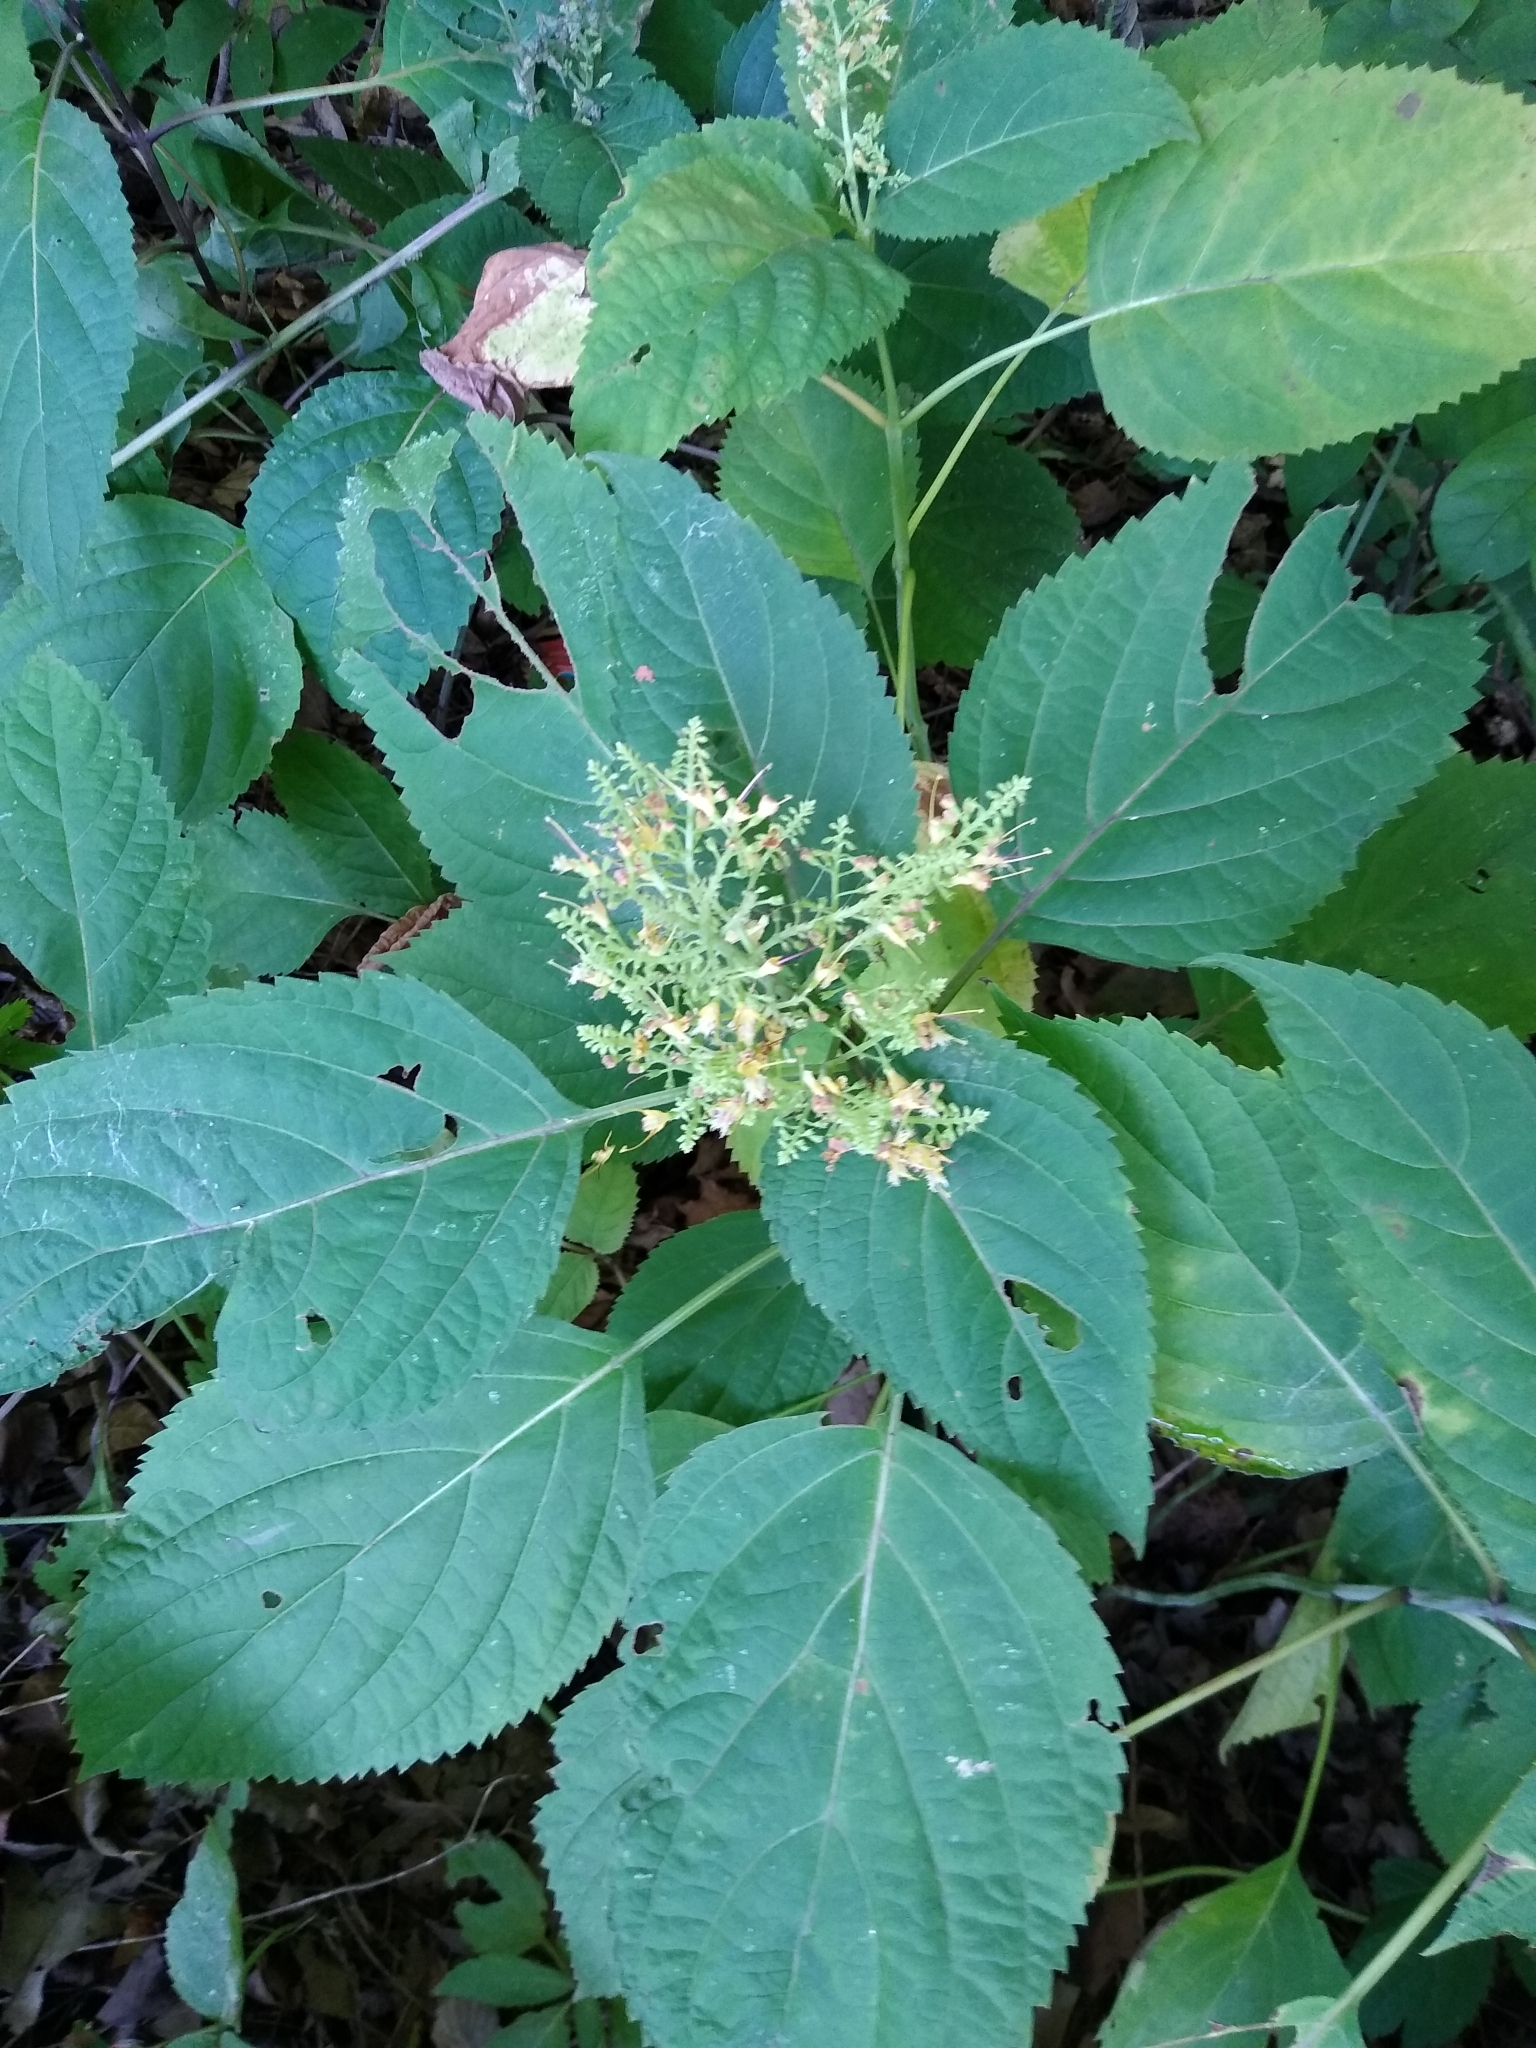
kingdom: Plantae
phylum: Tracheophyta
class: Magnoliopsida
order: Lamiales
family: Lamiaceae
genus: Collinsonia
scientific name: Collinsonia canadensis
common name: Northern horsebalm
